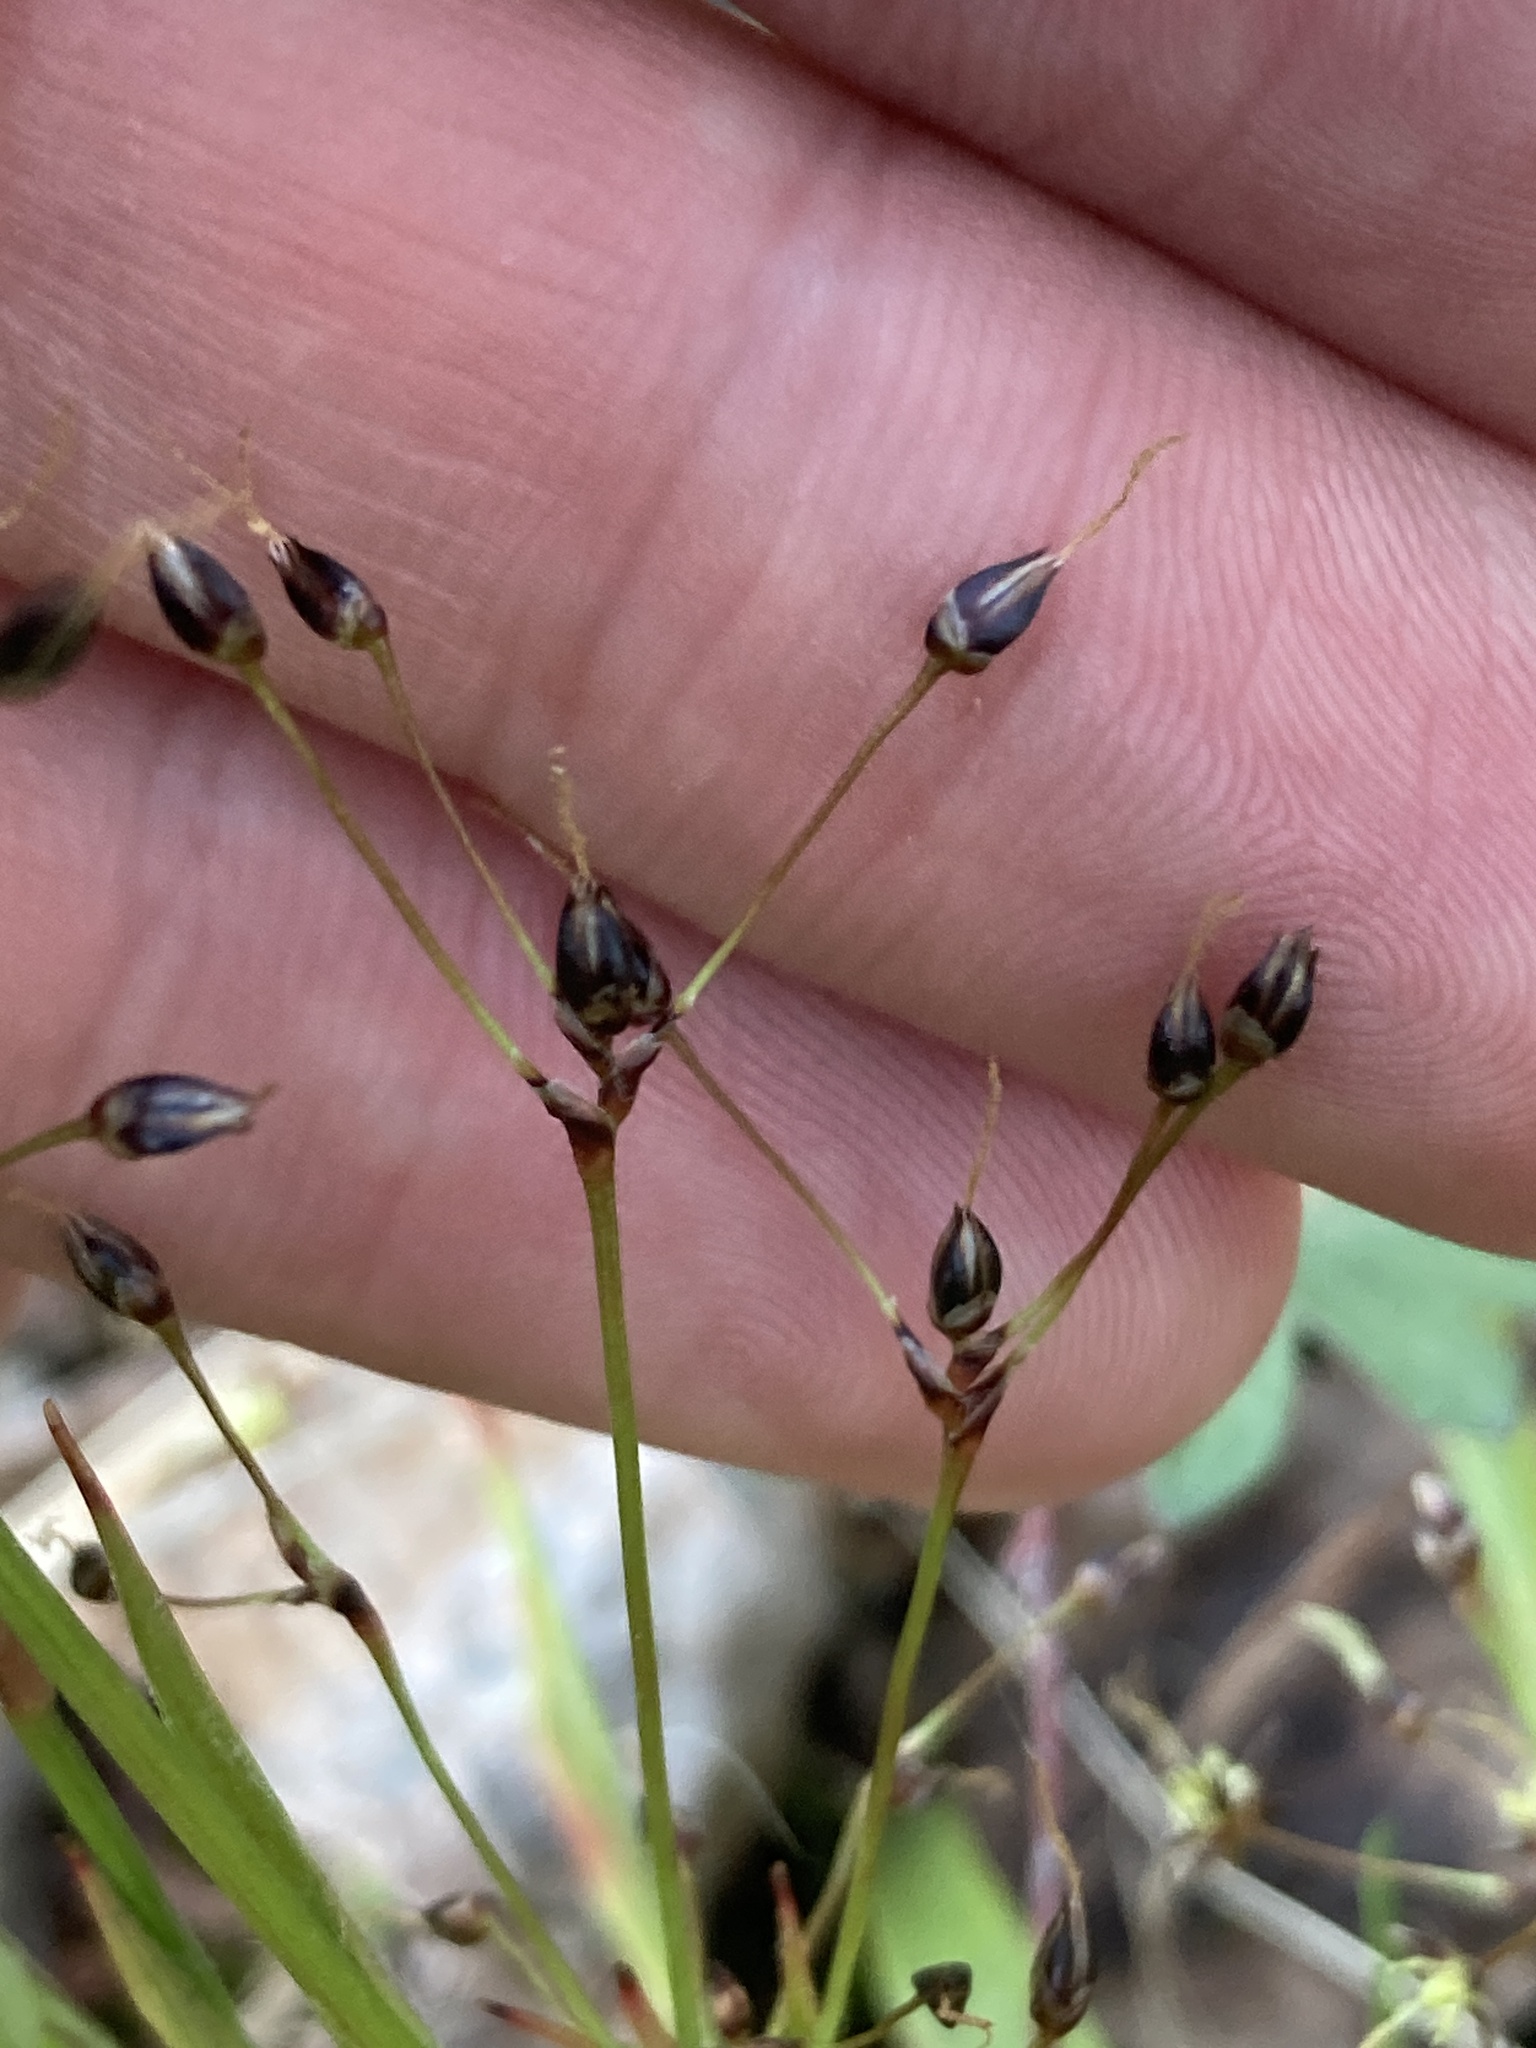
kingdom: Plantae
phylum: Tracheophyta
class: Liliopsida
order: Poales
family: Juncaceae
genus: Luzula
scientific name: Luzula pilosa
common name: Hairy wood-rush
